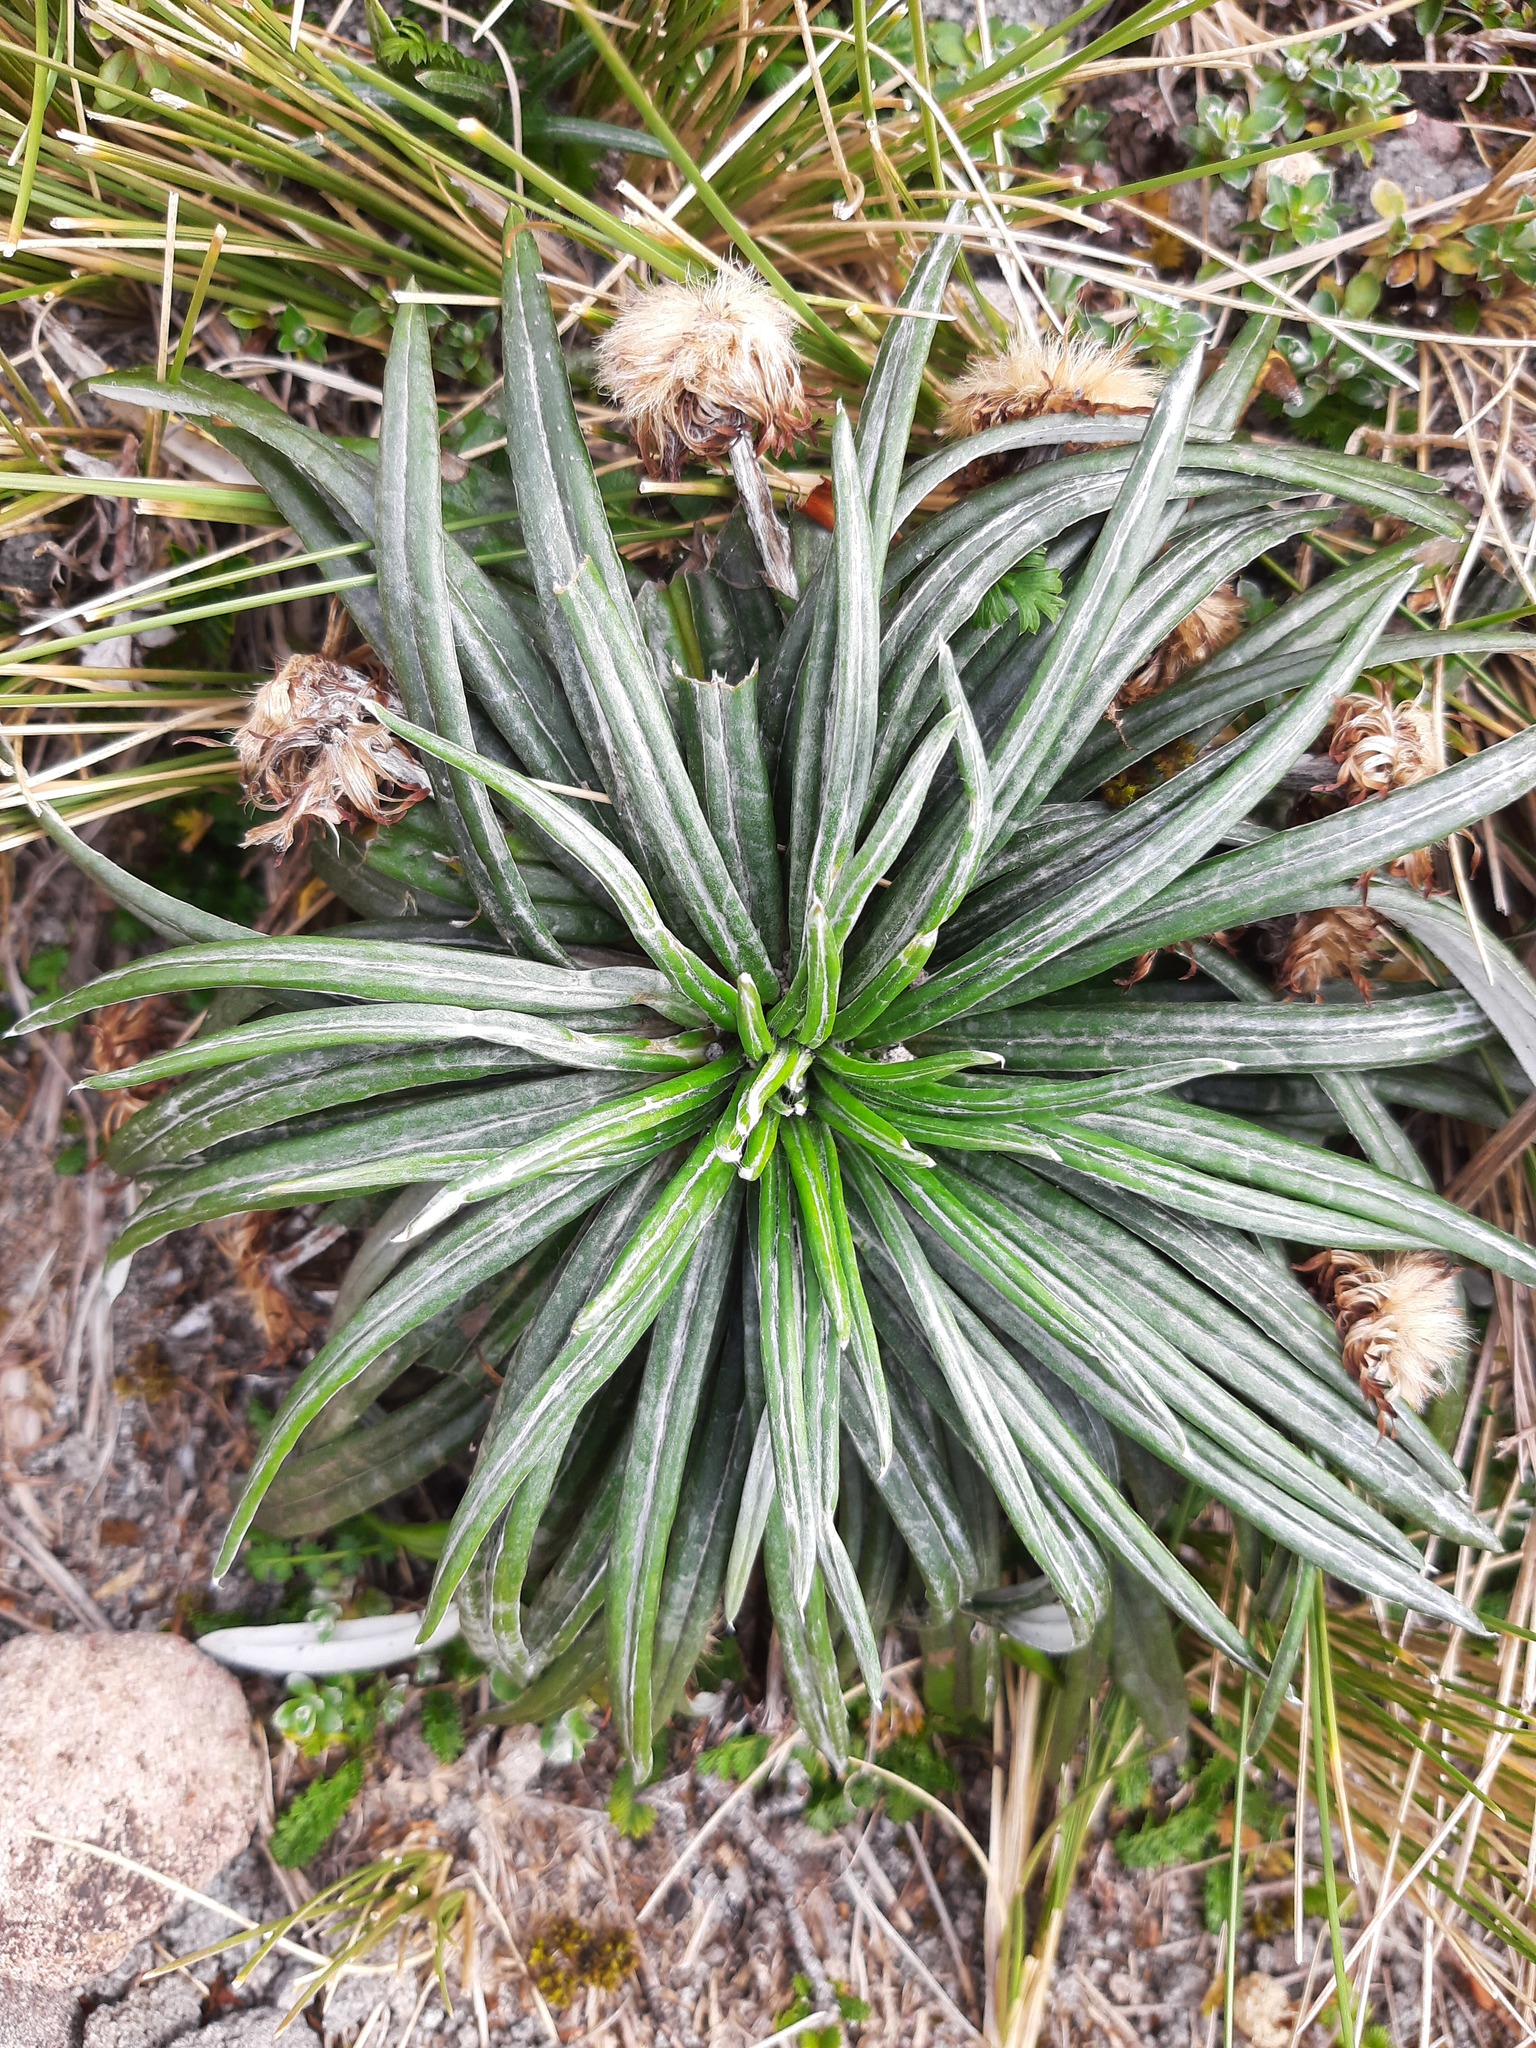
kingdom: Plantae
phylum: Tracheophyta
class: Magnoliopsida
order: Asterales
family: Asteraceae
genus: Celmisia
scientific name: Celmisia major
